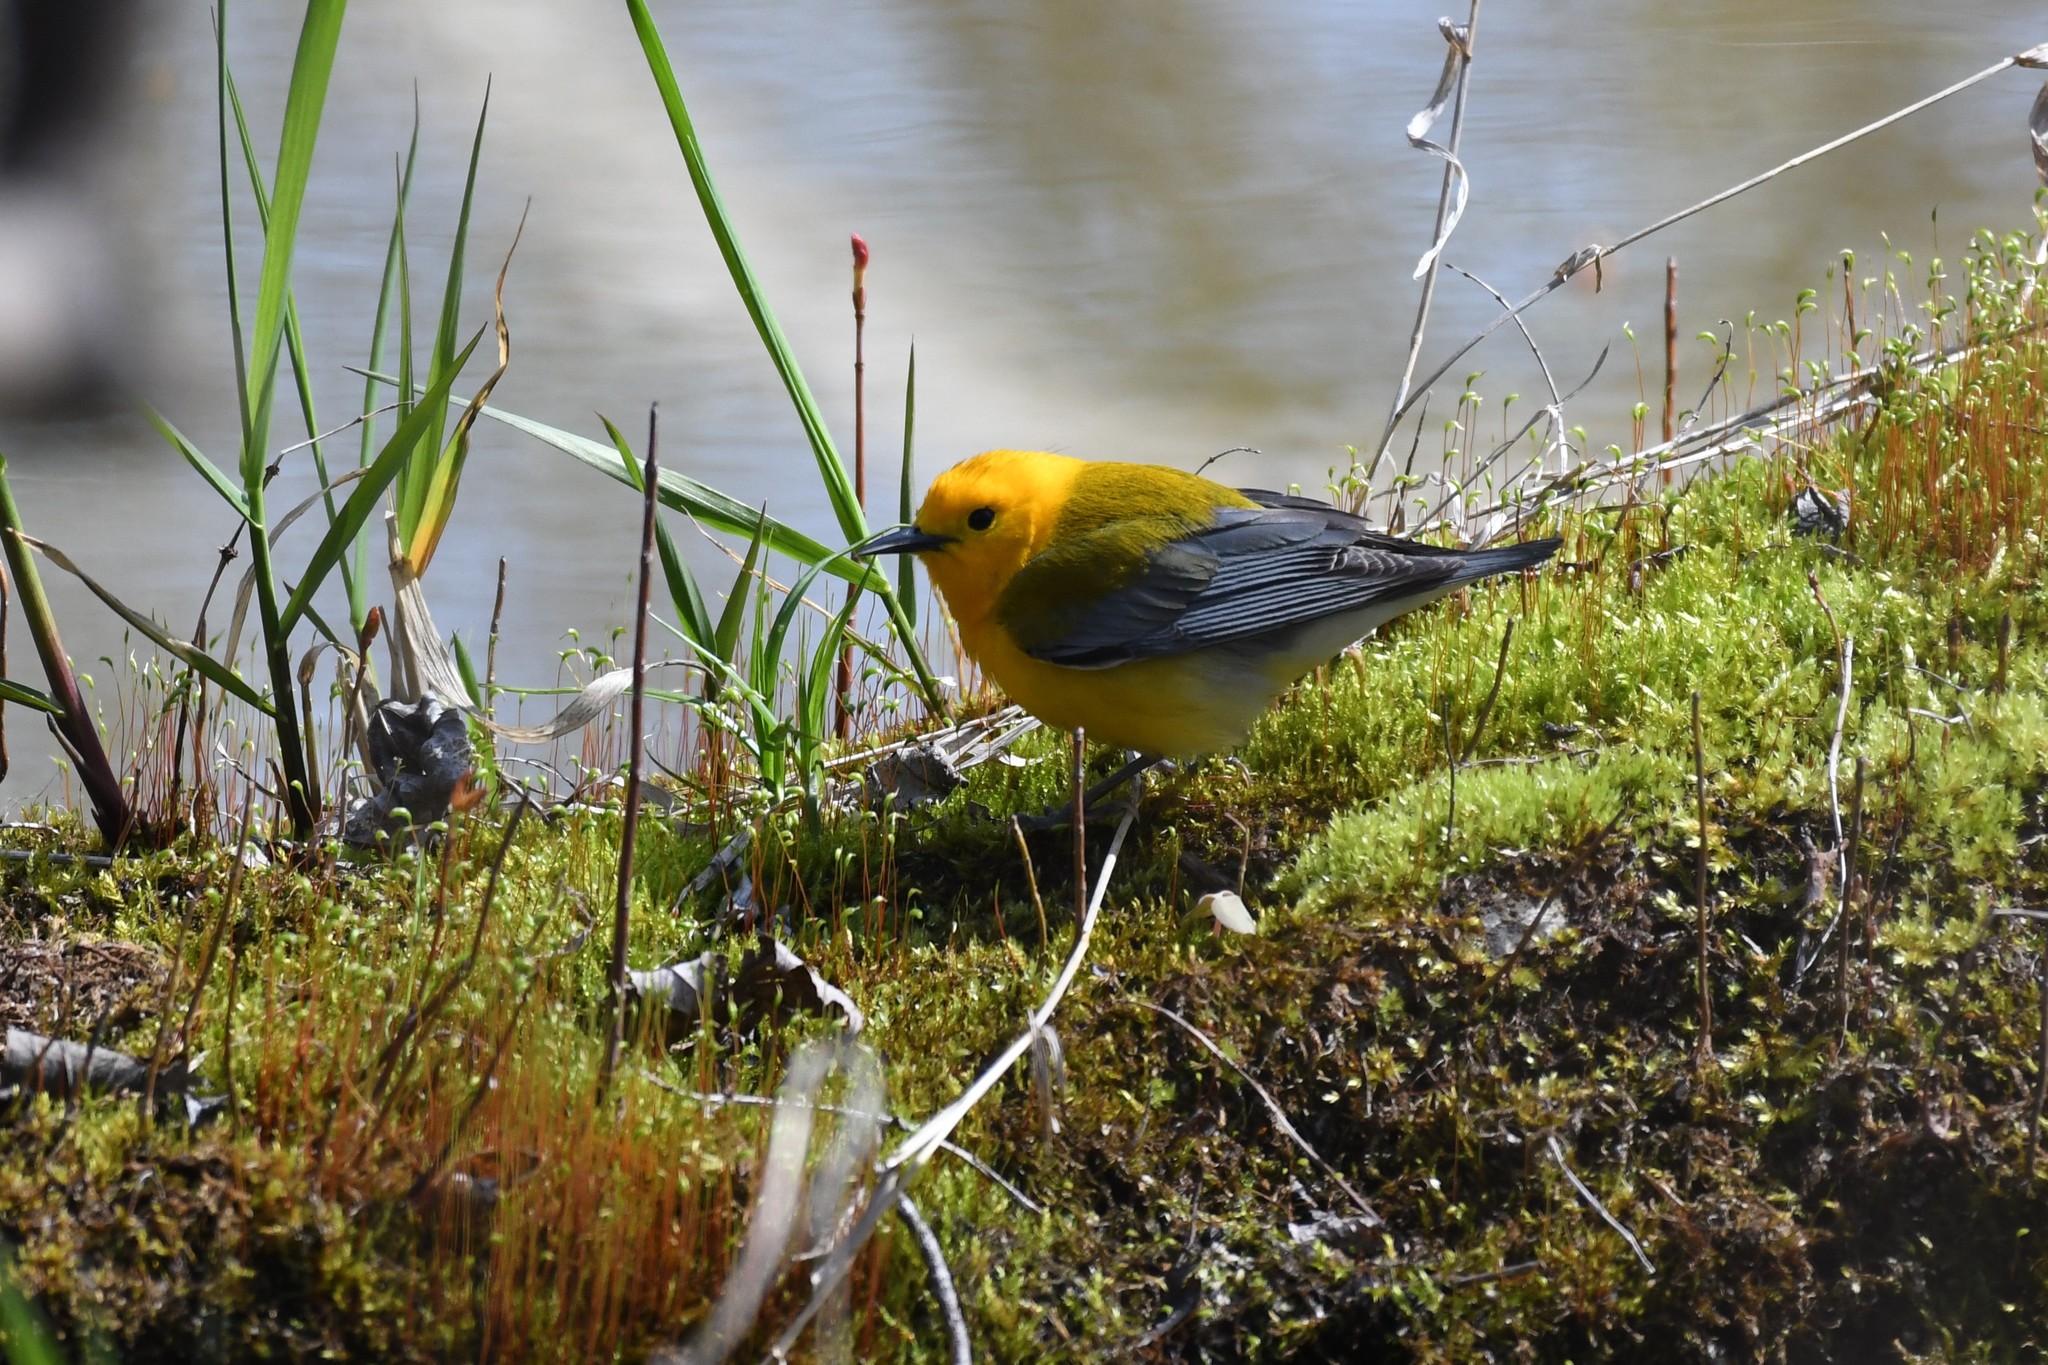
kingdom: Animalia
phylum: Chordata
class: Aves
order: Passeriformes
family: Parulidae
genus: Protonotaria
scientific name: Protonotaria citrea
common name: Prothonotary warbler
